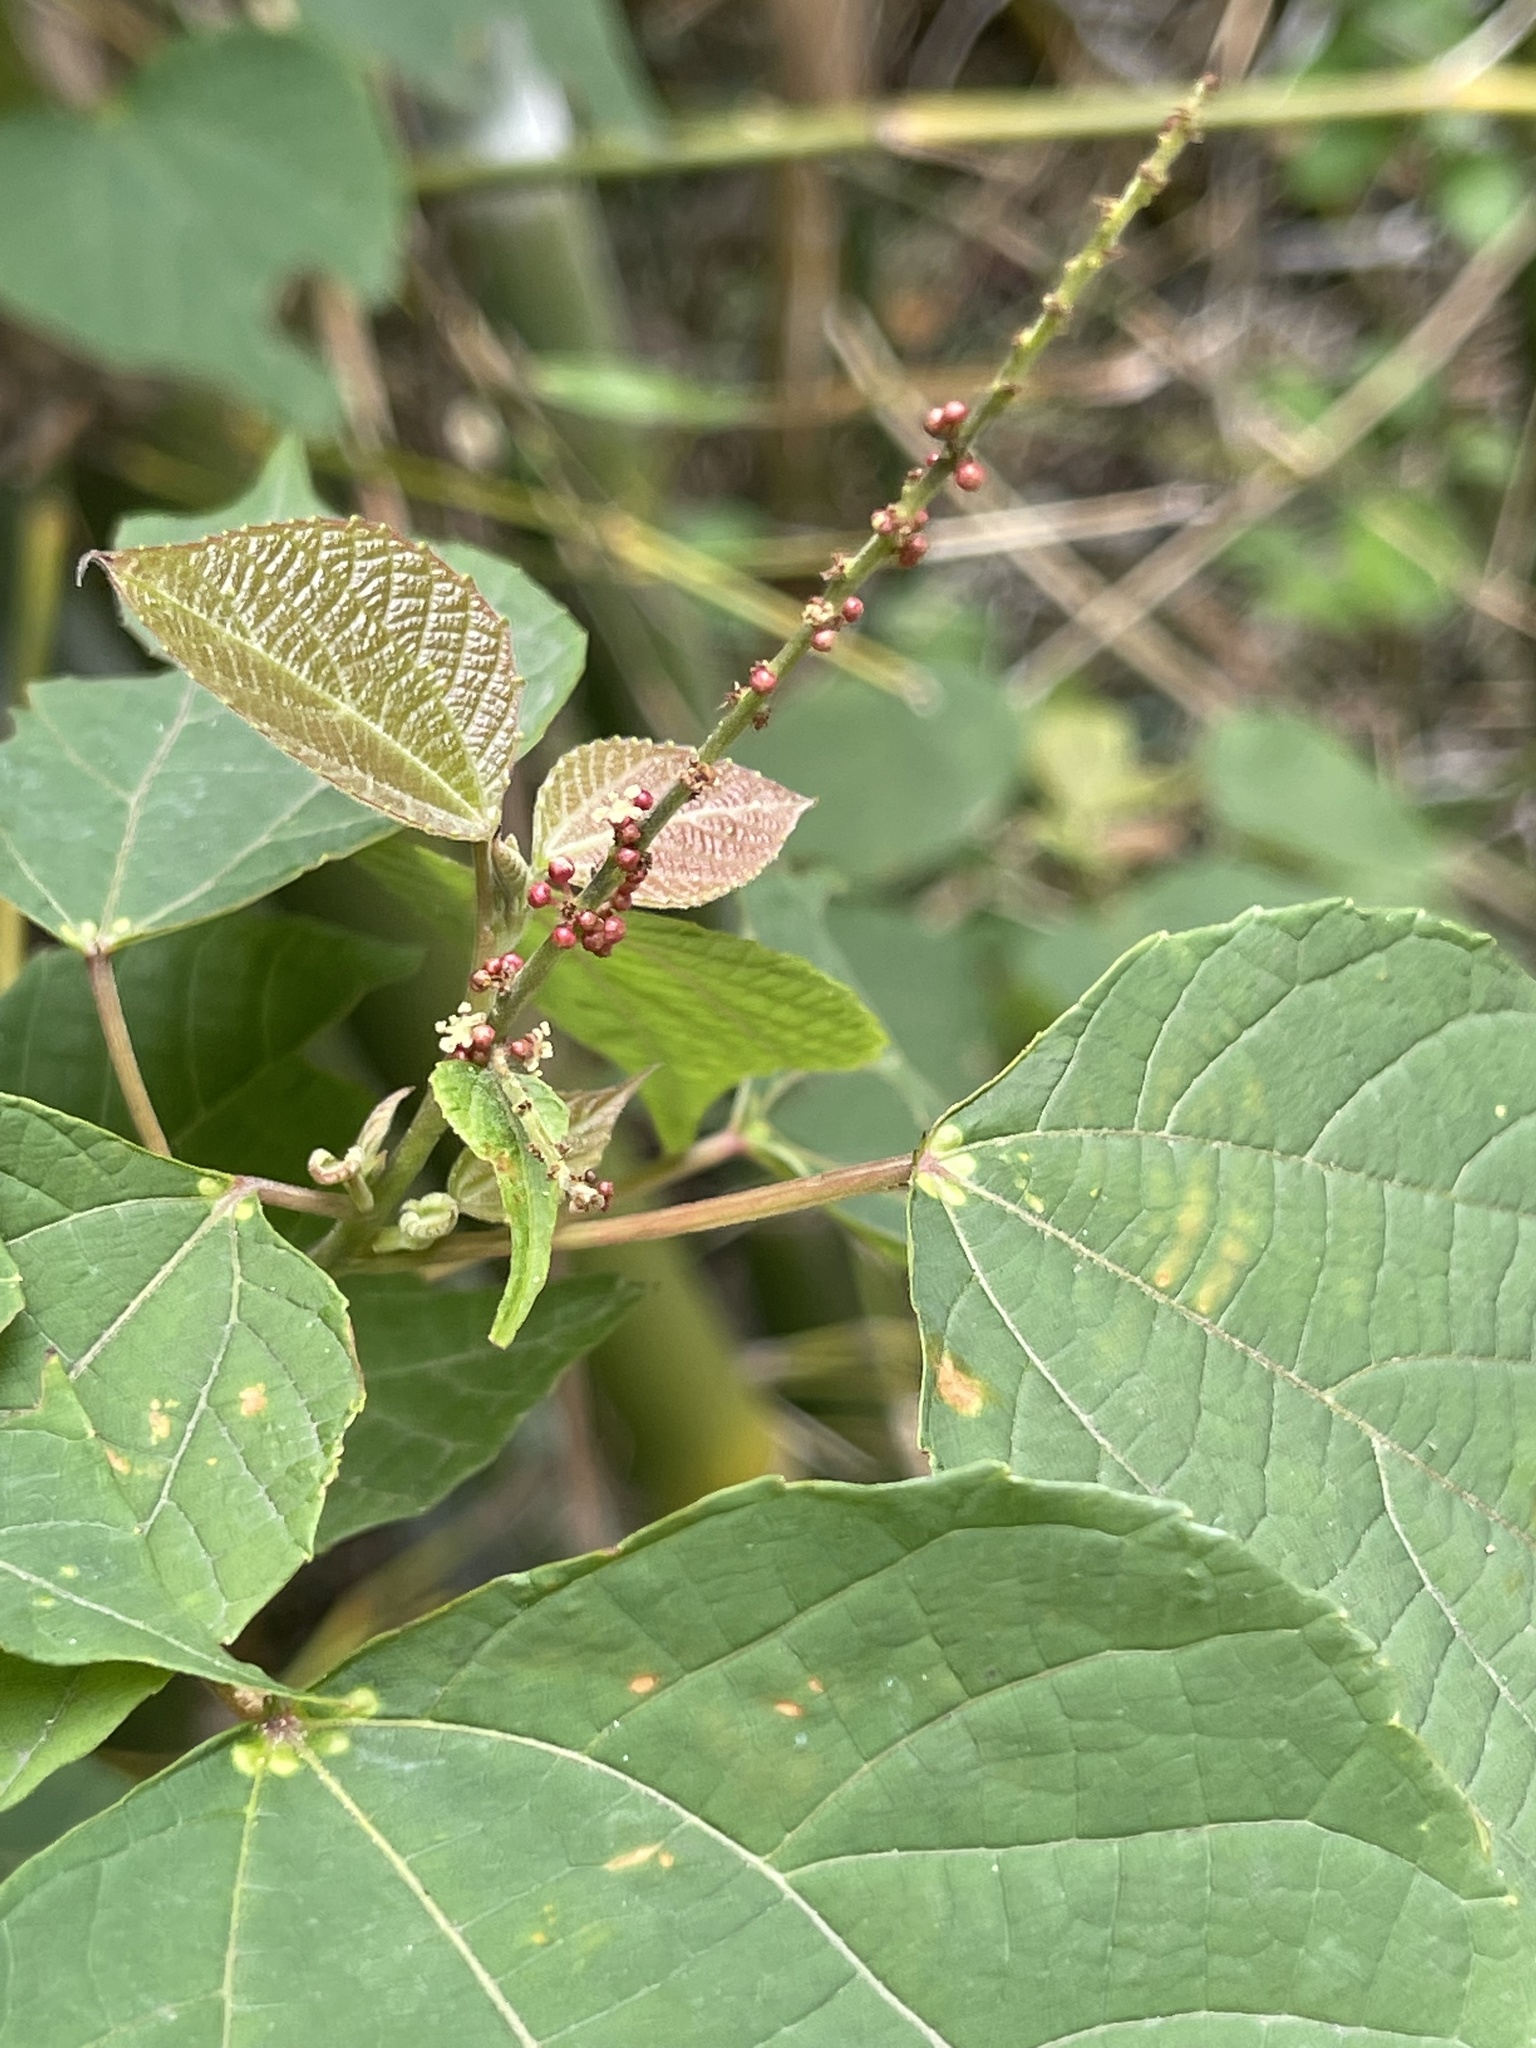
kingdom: Plantae
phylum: Tracheophyta
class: Magnoliopsida
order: Malpighiales
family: Euphorbiaceae
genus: Alchornea
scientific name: Alchornea trewioides
